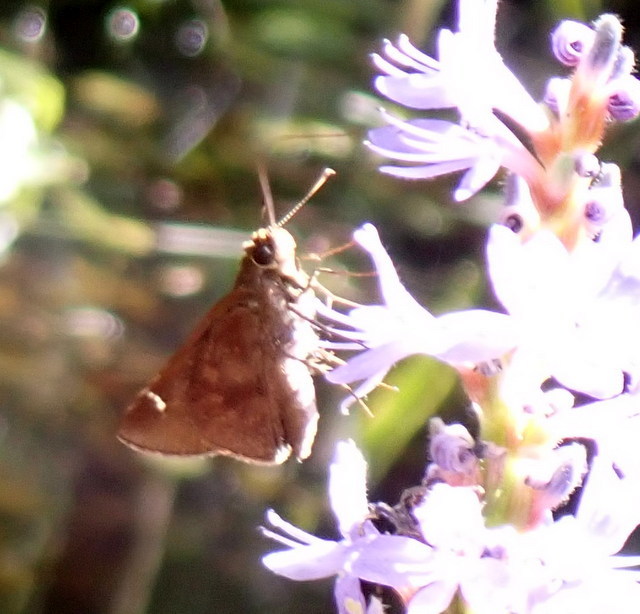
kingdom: Animalia
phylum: Arthropoda
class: Insecta
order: Lepidoptera
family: Hesperiidae
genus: Lerema
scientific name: Lerema accius
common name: Clouded skipper
